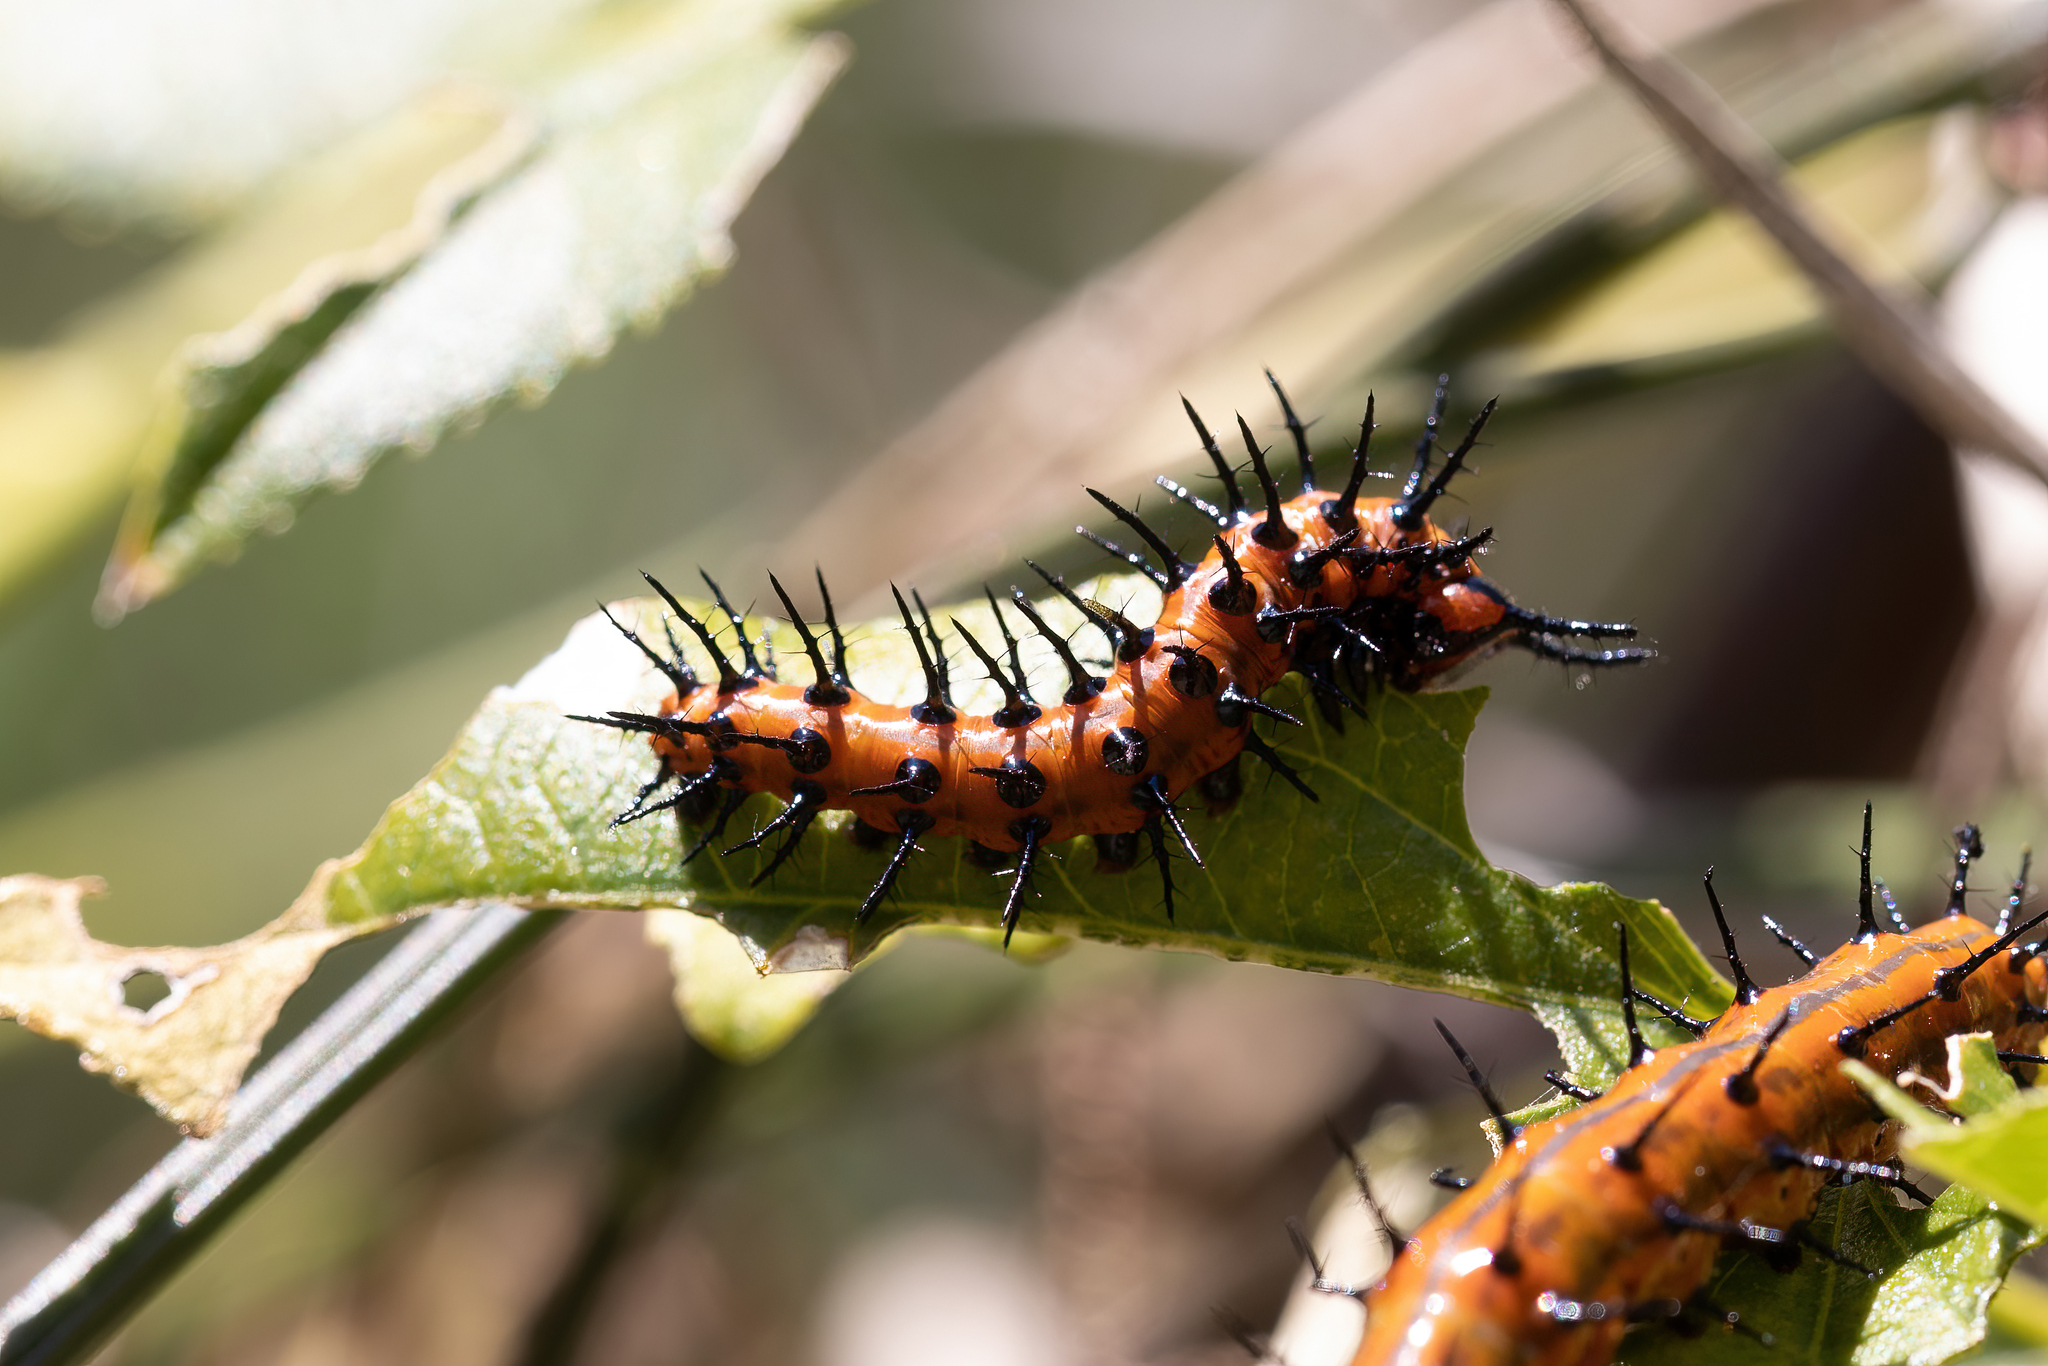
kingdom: Animalia
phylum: Arthropoda
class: Insecta
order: Lepidoptera
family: Nymphalidae
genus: Dione
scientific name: Dione vanillae
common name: Gulf fritillary
